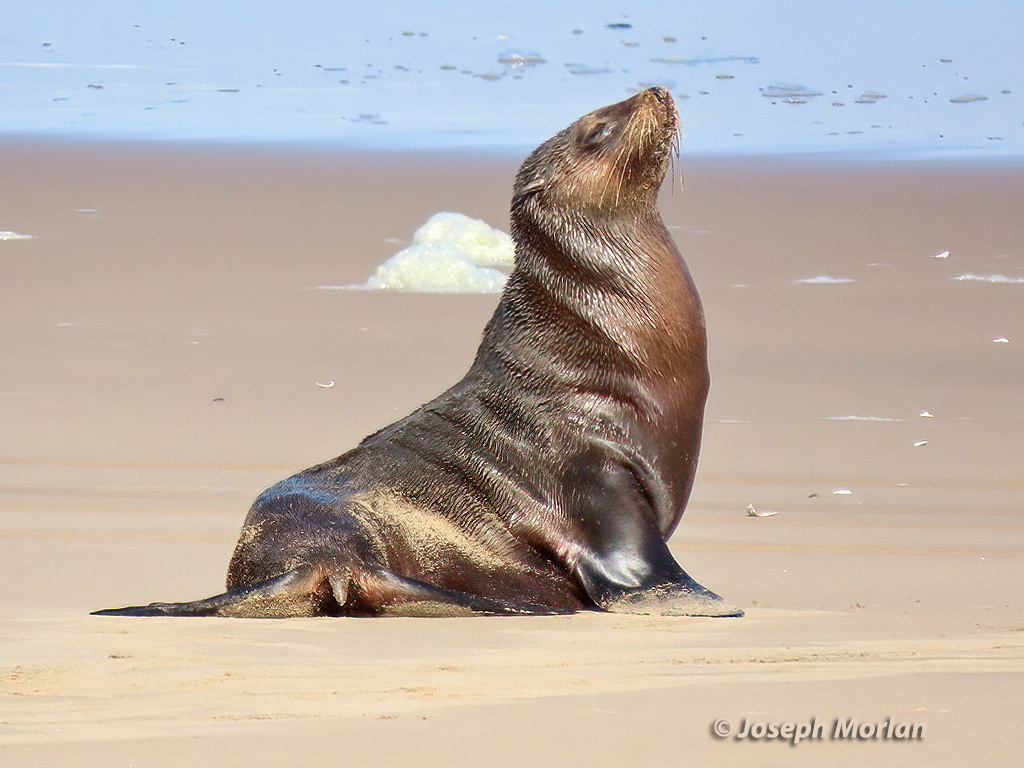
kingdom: Animalia
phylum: Chordata
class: Mammalia
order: Carnivora
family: Otariidae
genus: Arctocephalus
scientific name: Arctocephalus pusillus
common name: Brown fur seal
